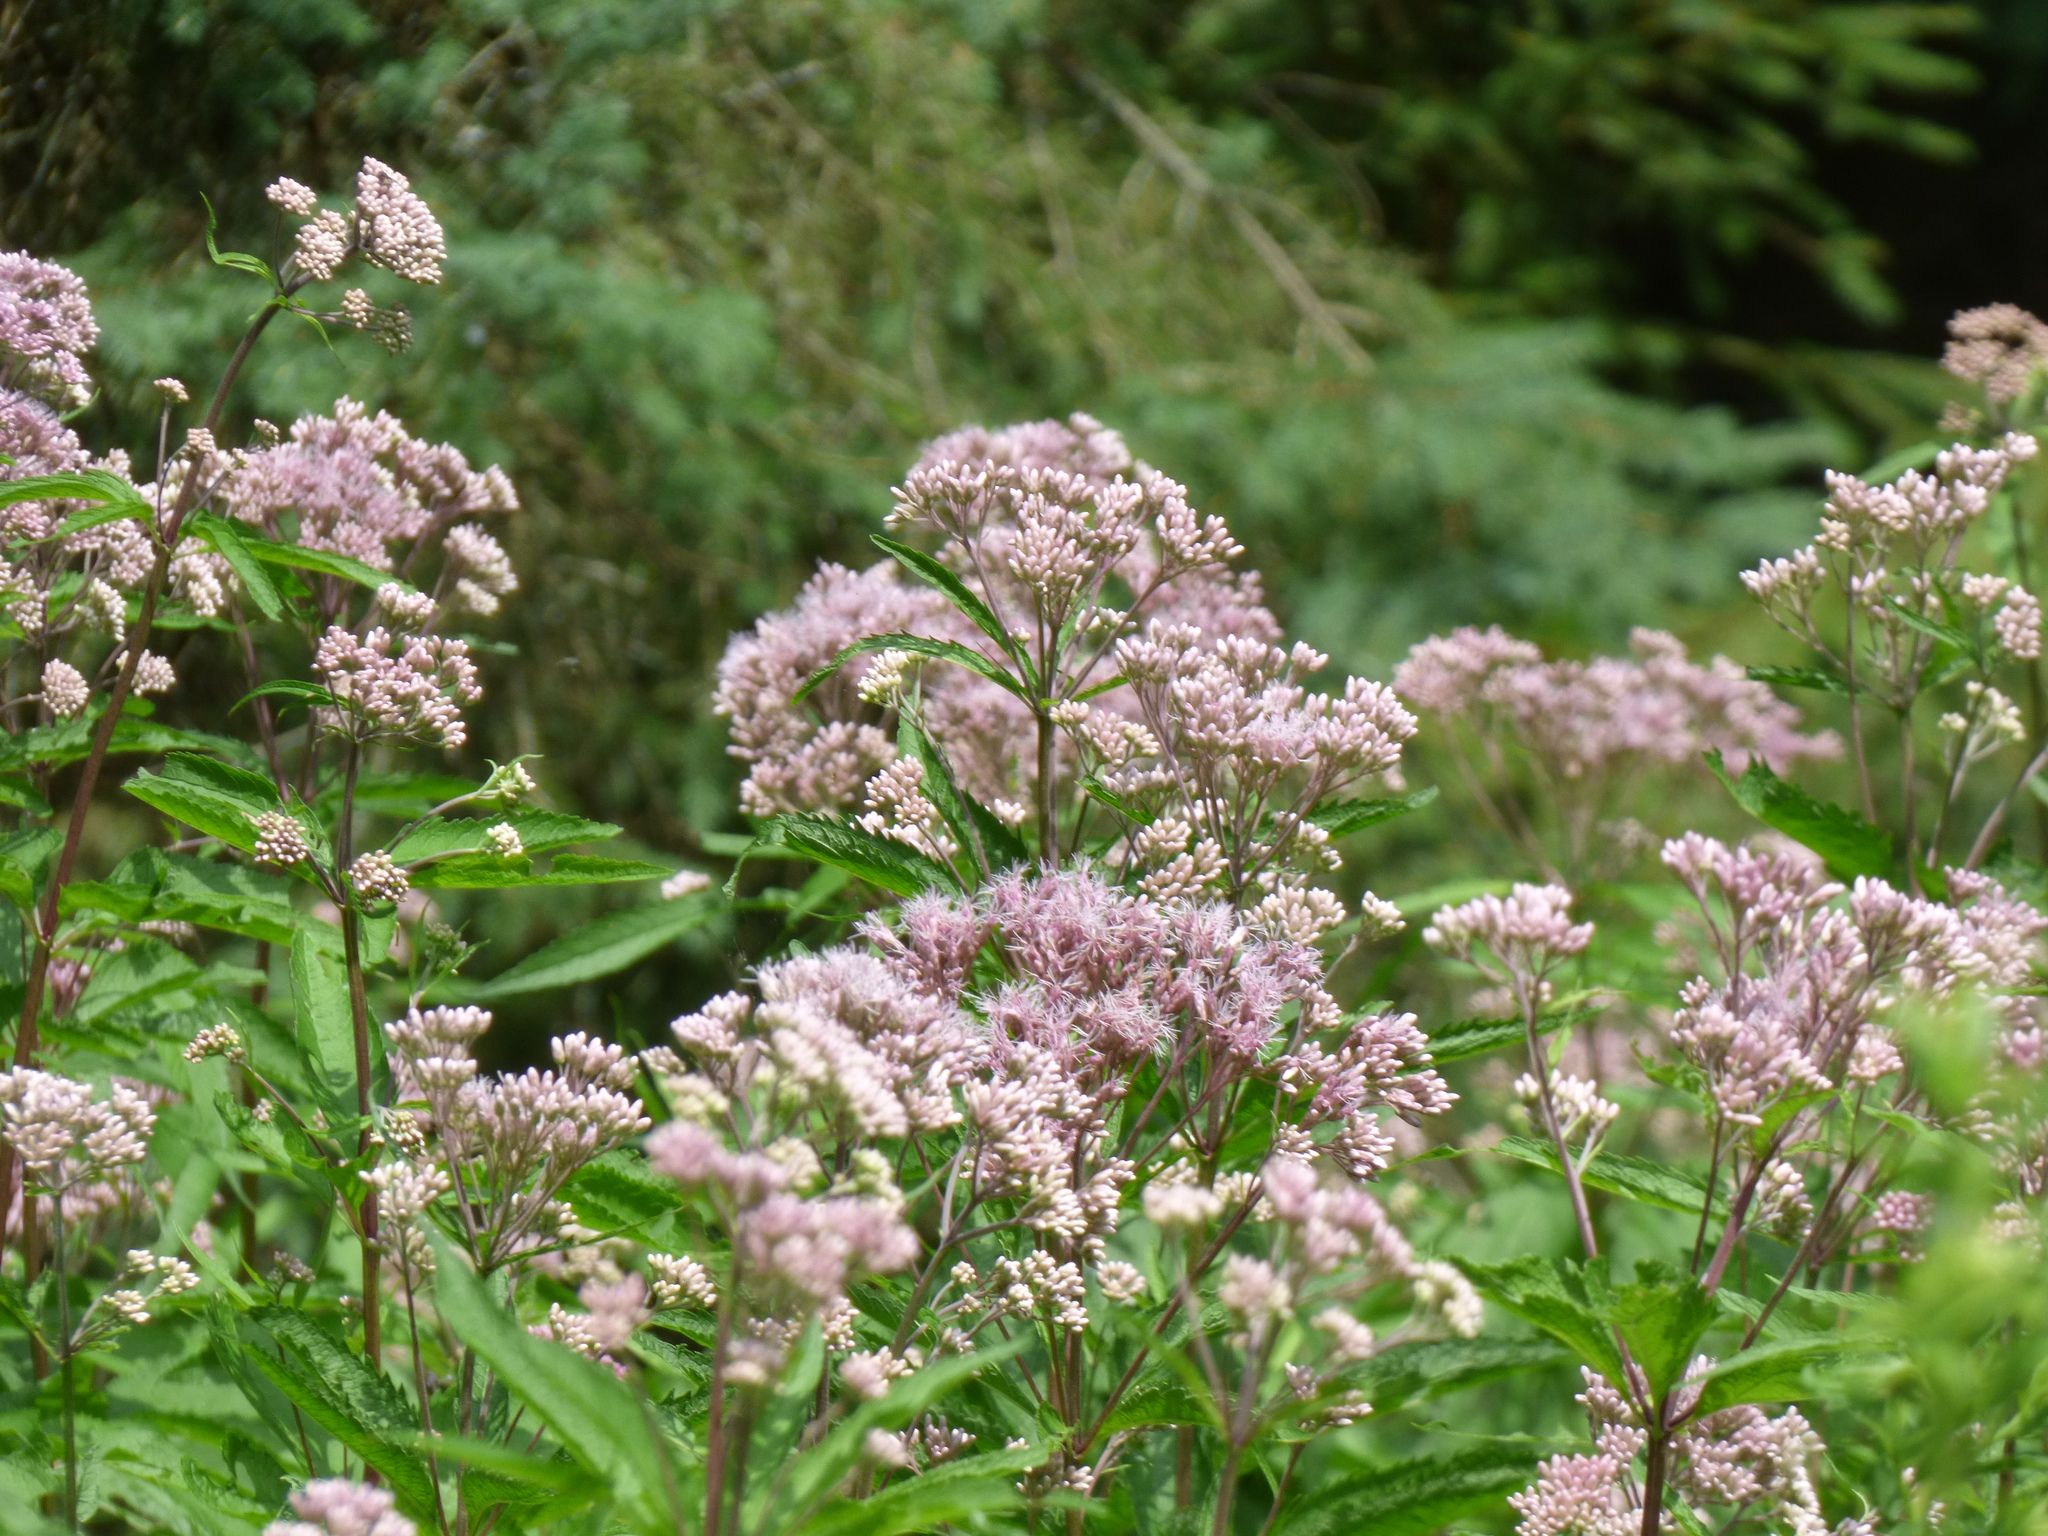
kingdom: Plantae
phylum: Tracheophyta
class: Magnoliopsida
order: Asterales
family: Asteraceae
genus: Eutrochium
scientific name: Eutrochium maculatum
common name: Spotted joe pye weed
